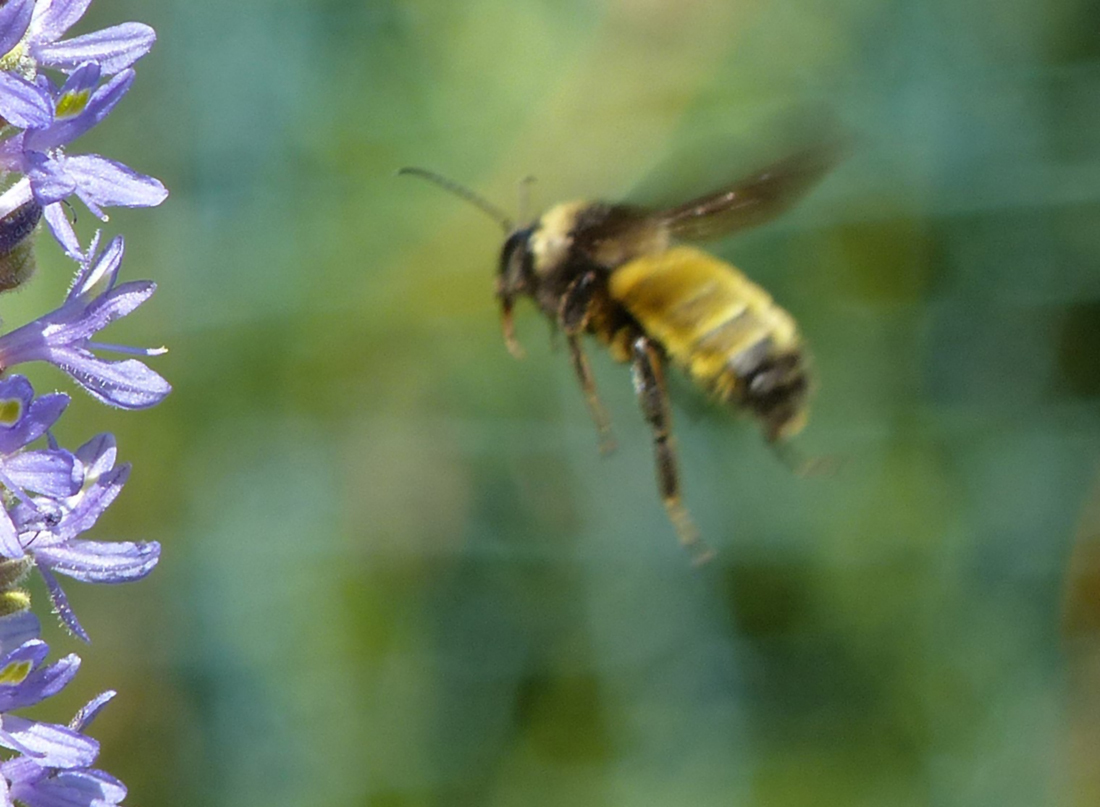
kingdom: Animalia
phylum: Arthropoda
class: Insecta
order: Hymenoptera
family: Apidae
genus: Bombus
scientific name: Bombus pensylvanicus
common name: Bumble bee
